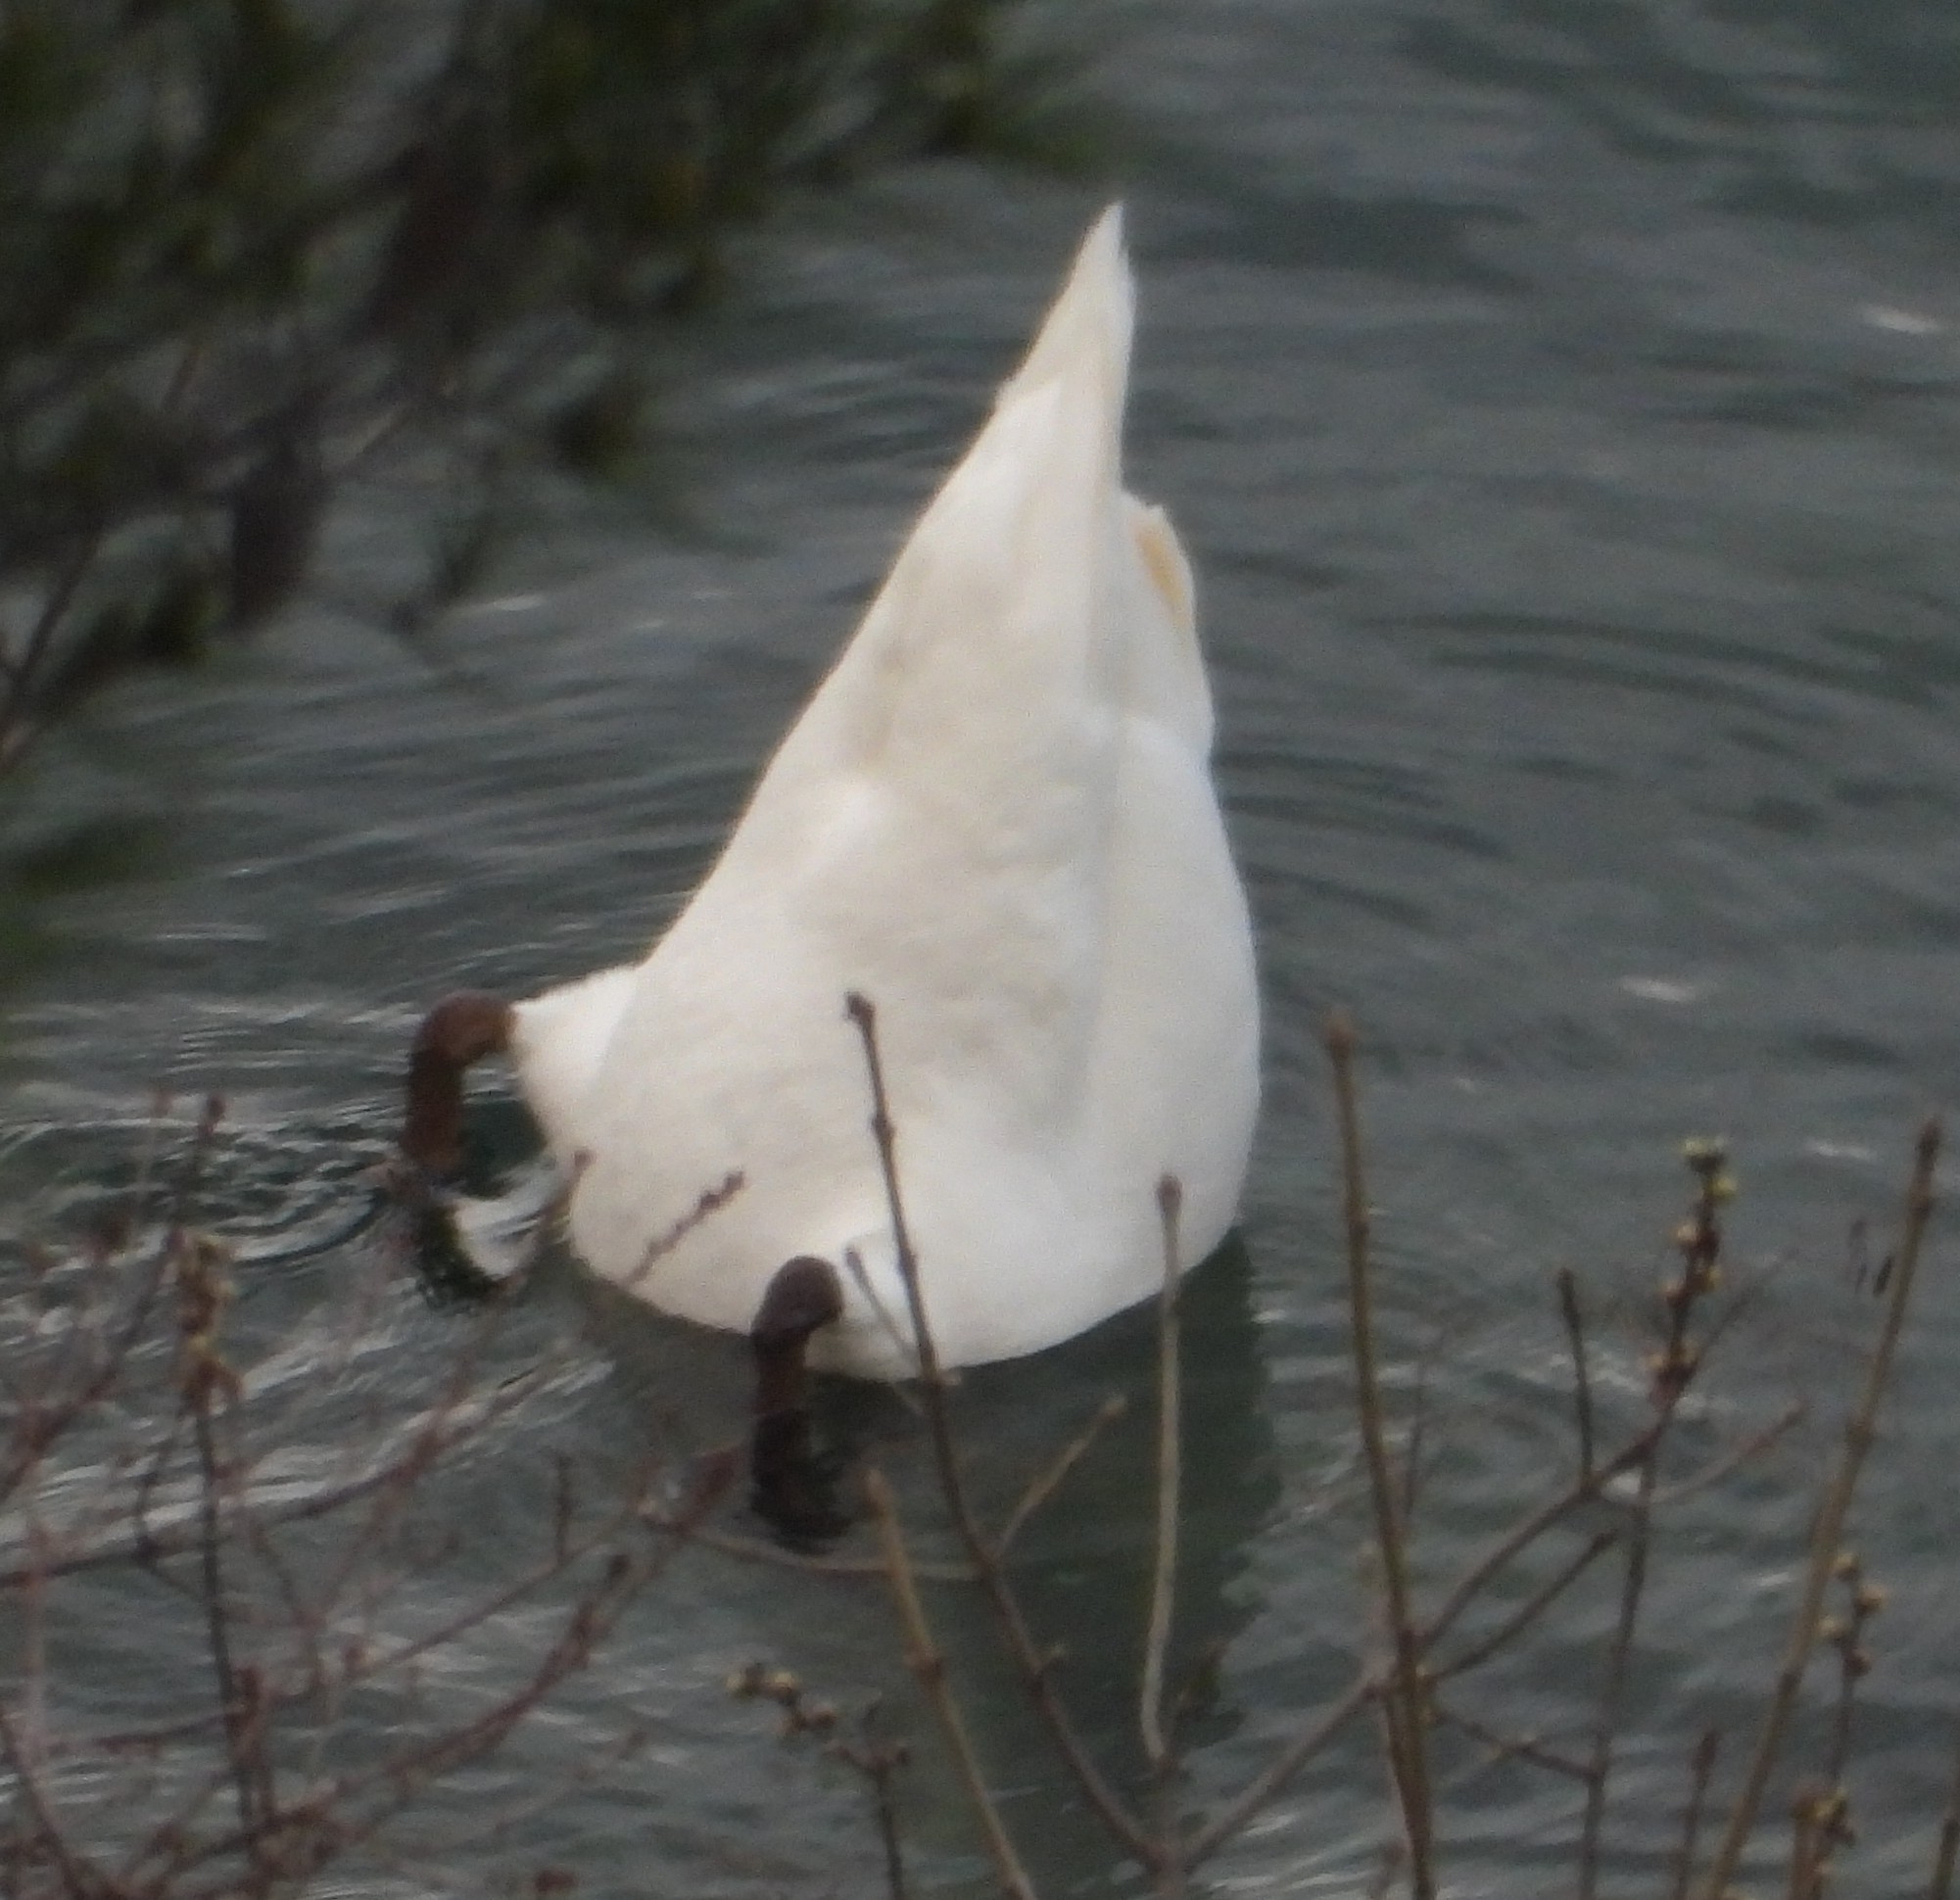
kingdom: Animalia
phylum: Chordata
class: Aves
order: Anseriformes
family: Anatidae
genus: Cygnus
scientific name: Cygnus olor
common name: Mute swan
